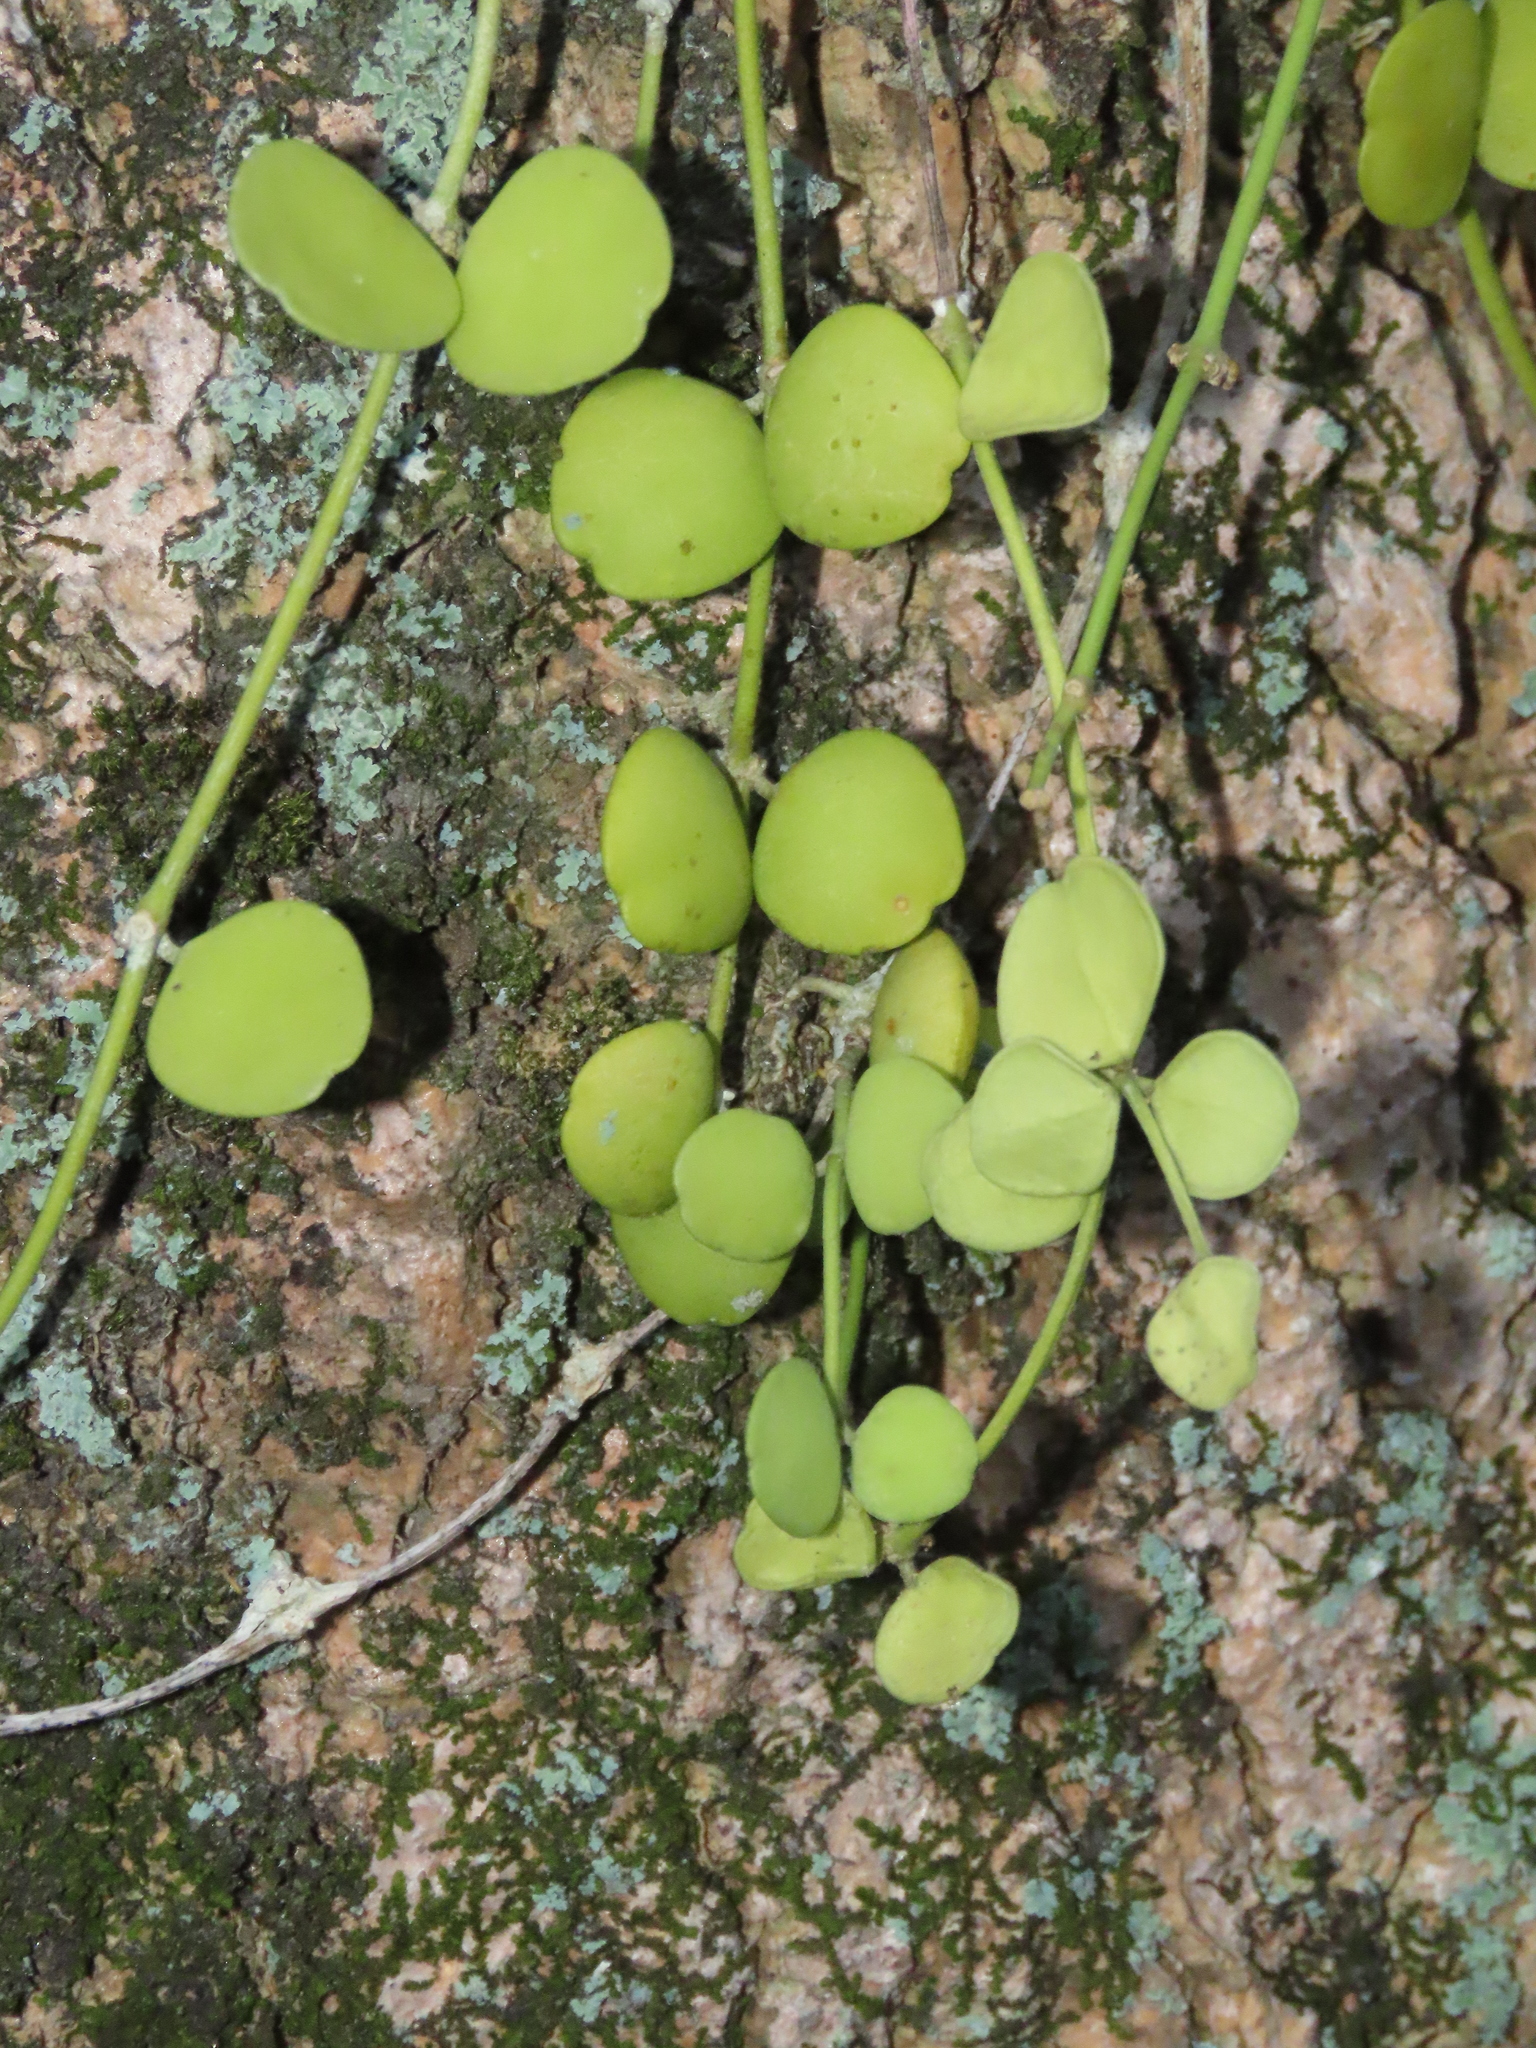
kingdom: Plantae
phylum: Tracheophyta
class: Magnoliopsida
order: Gentianales
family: Apocynaceae
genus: Dischidia
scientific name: Dischidia formosana
